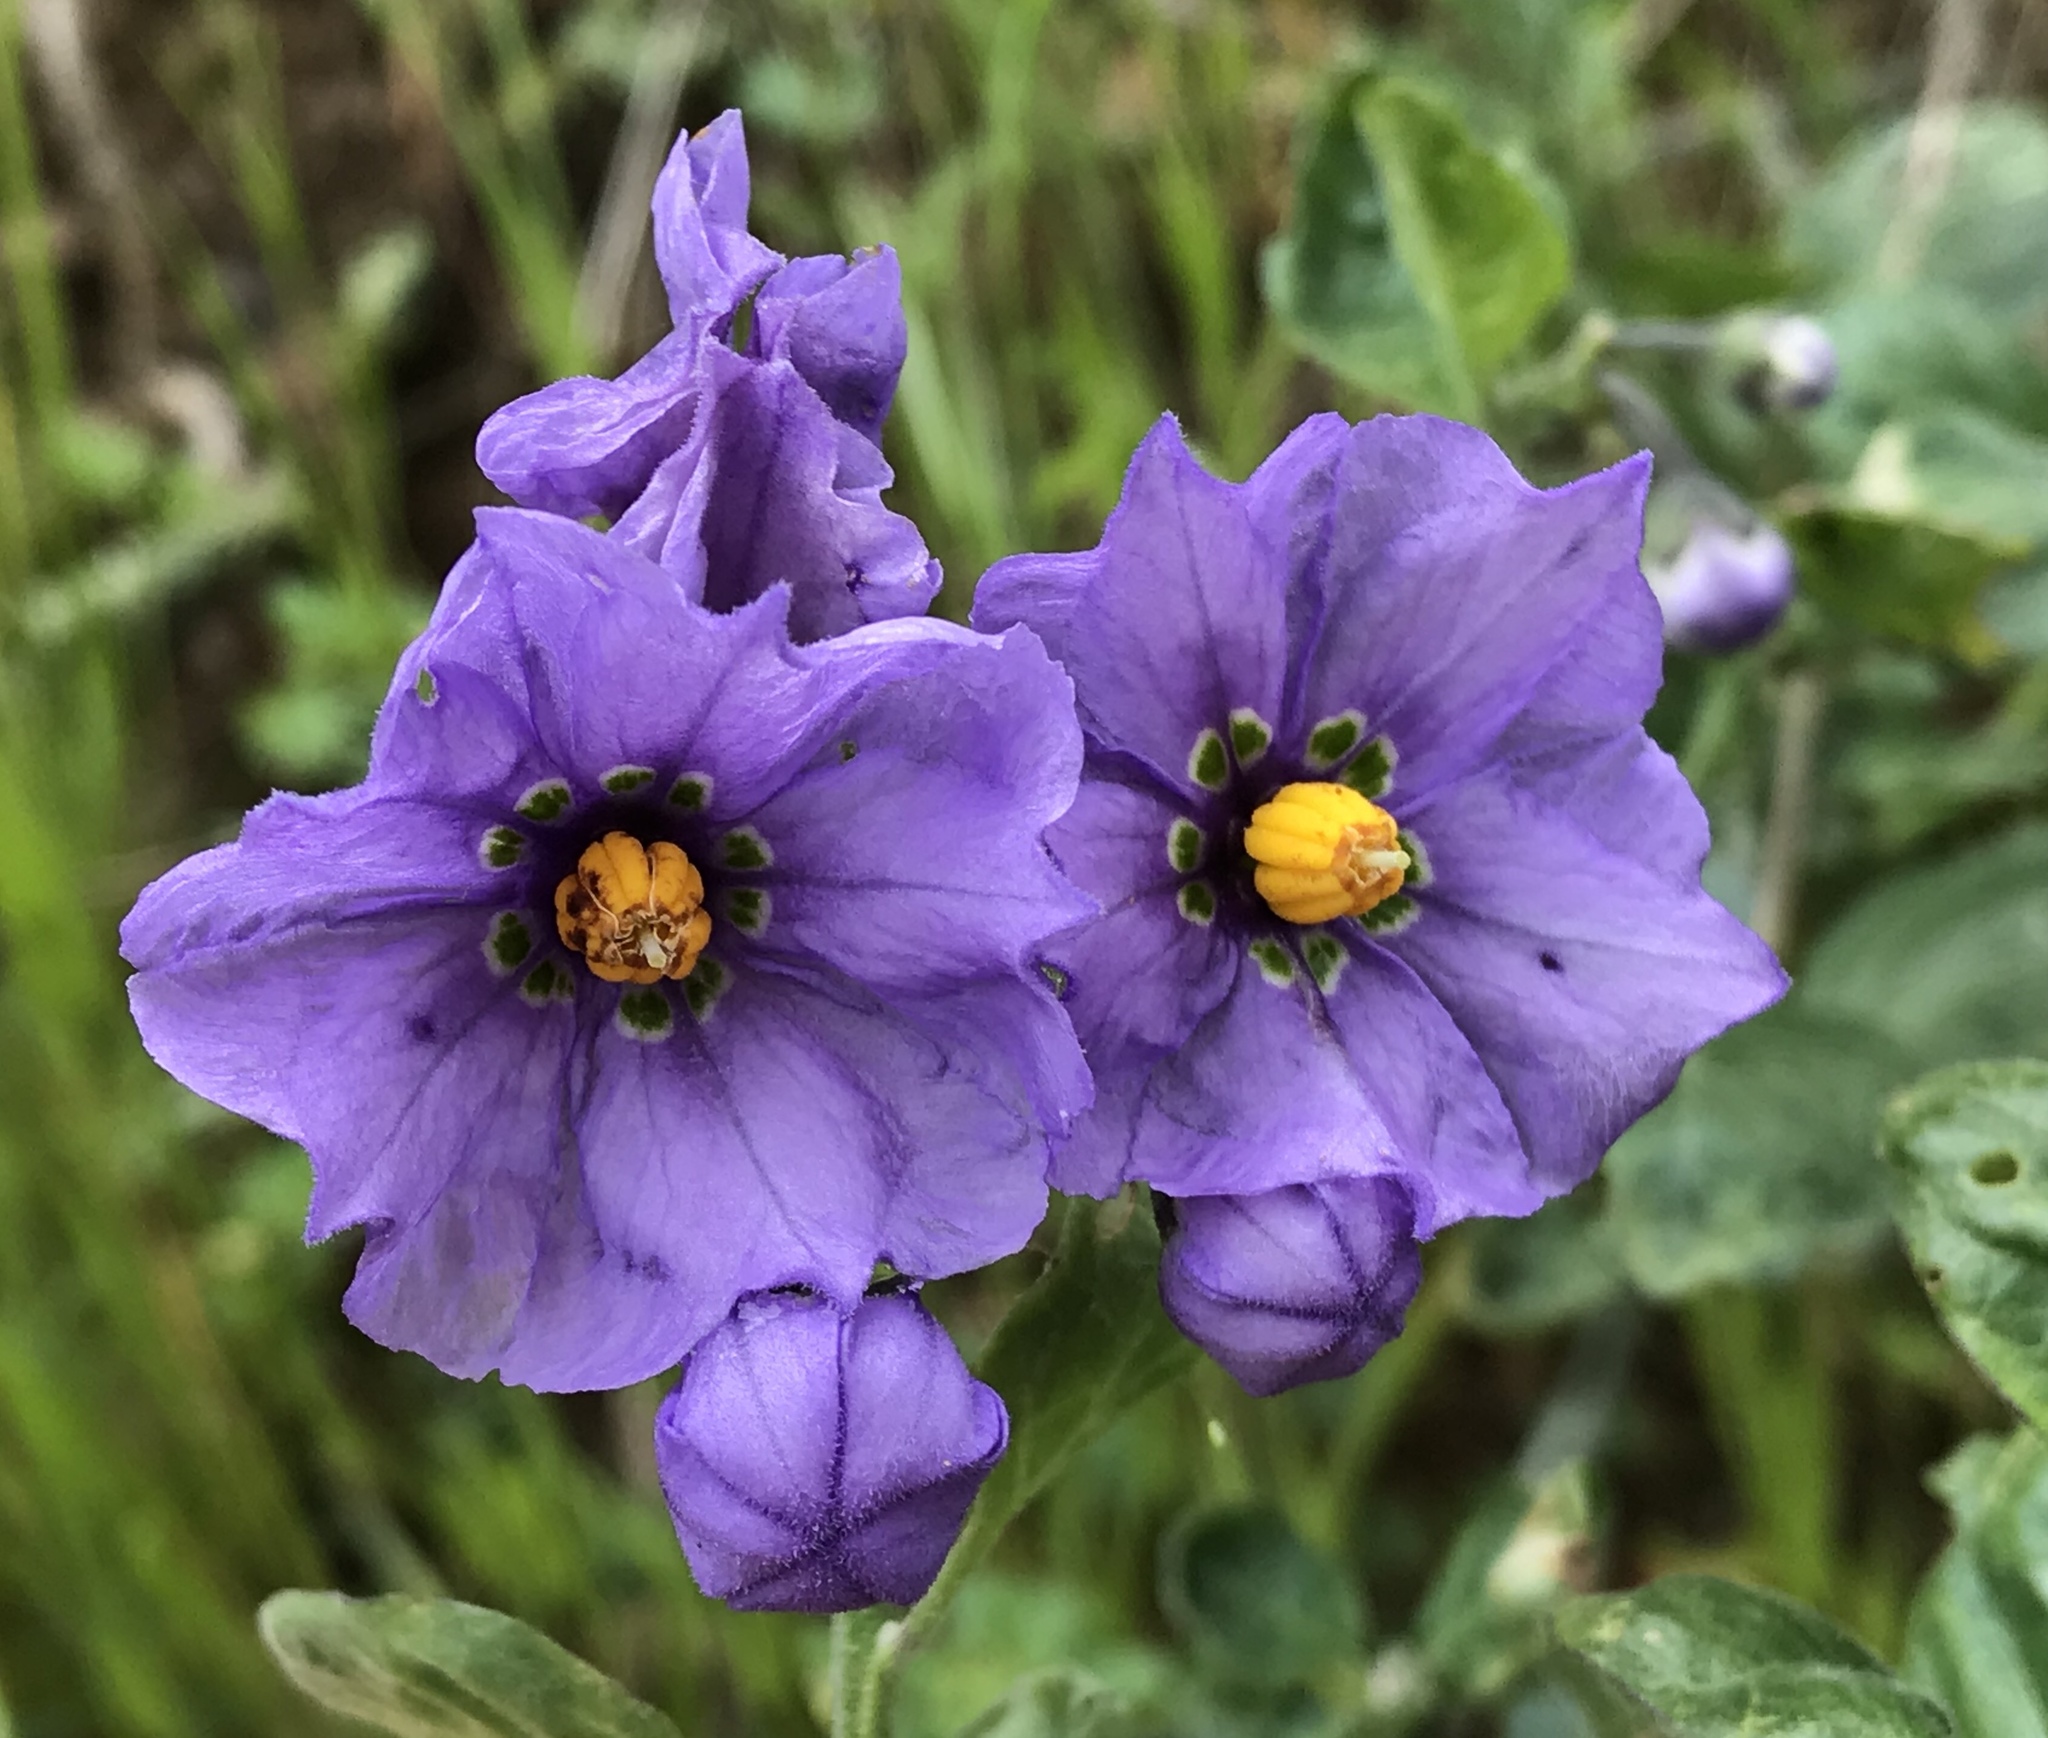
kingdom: Plantae
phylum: Tracheophyta
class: Magnoliopsida
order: Solanales
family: Solanaceae
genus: Solanum
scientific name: Solanum umbelliferum
